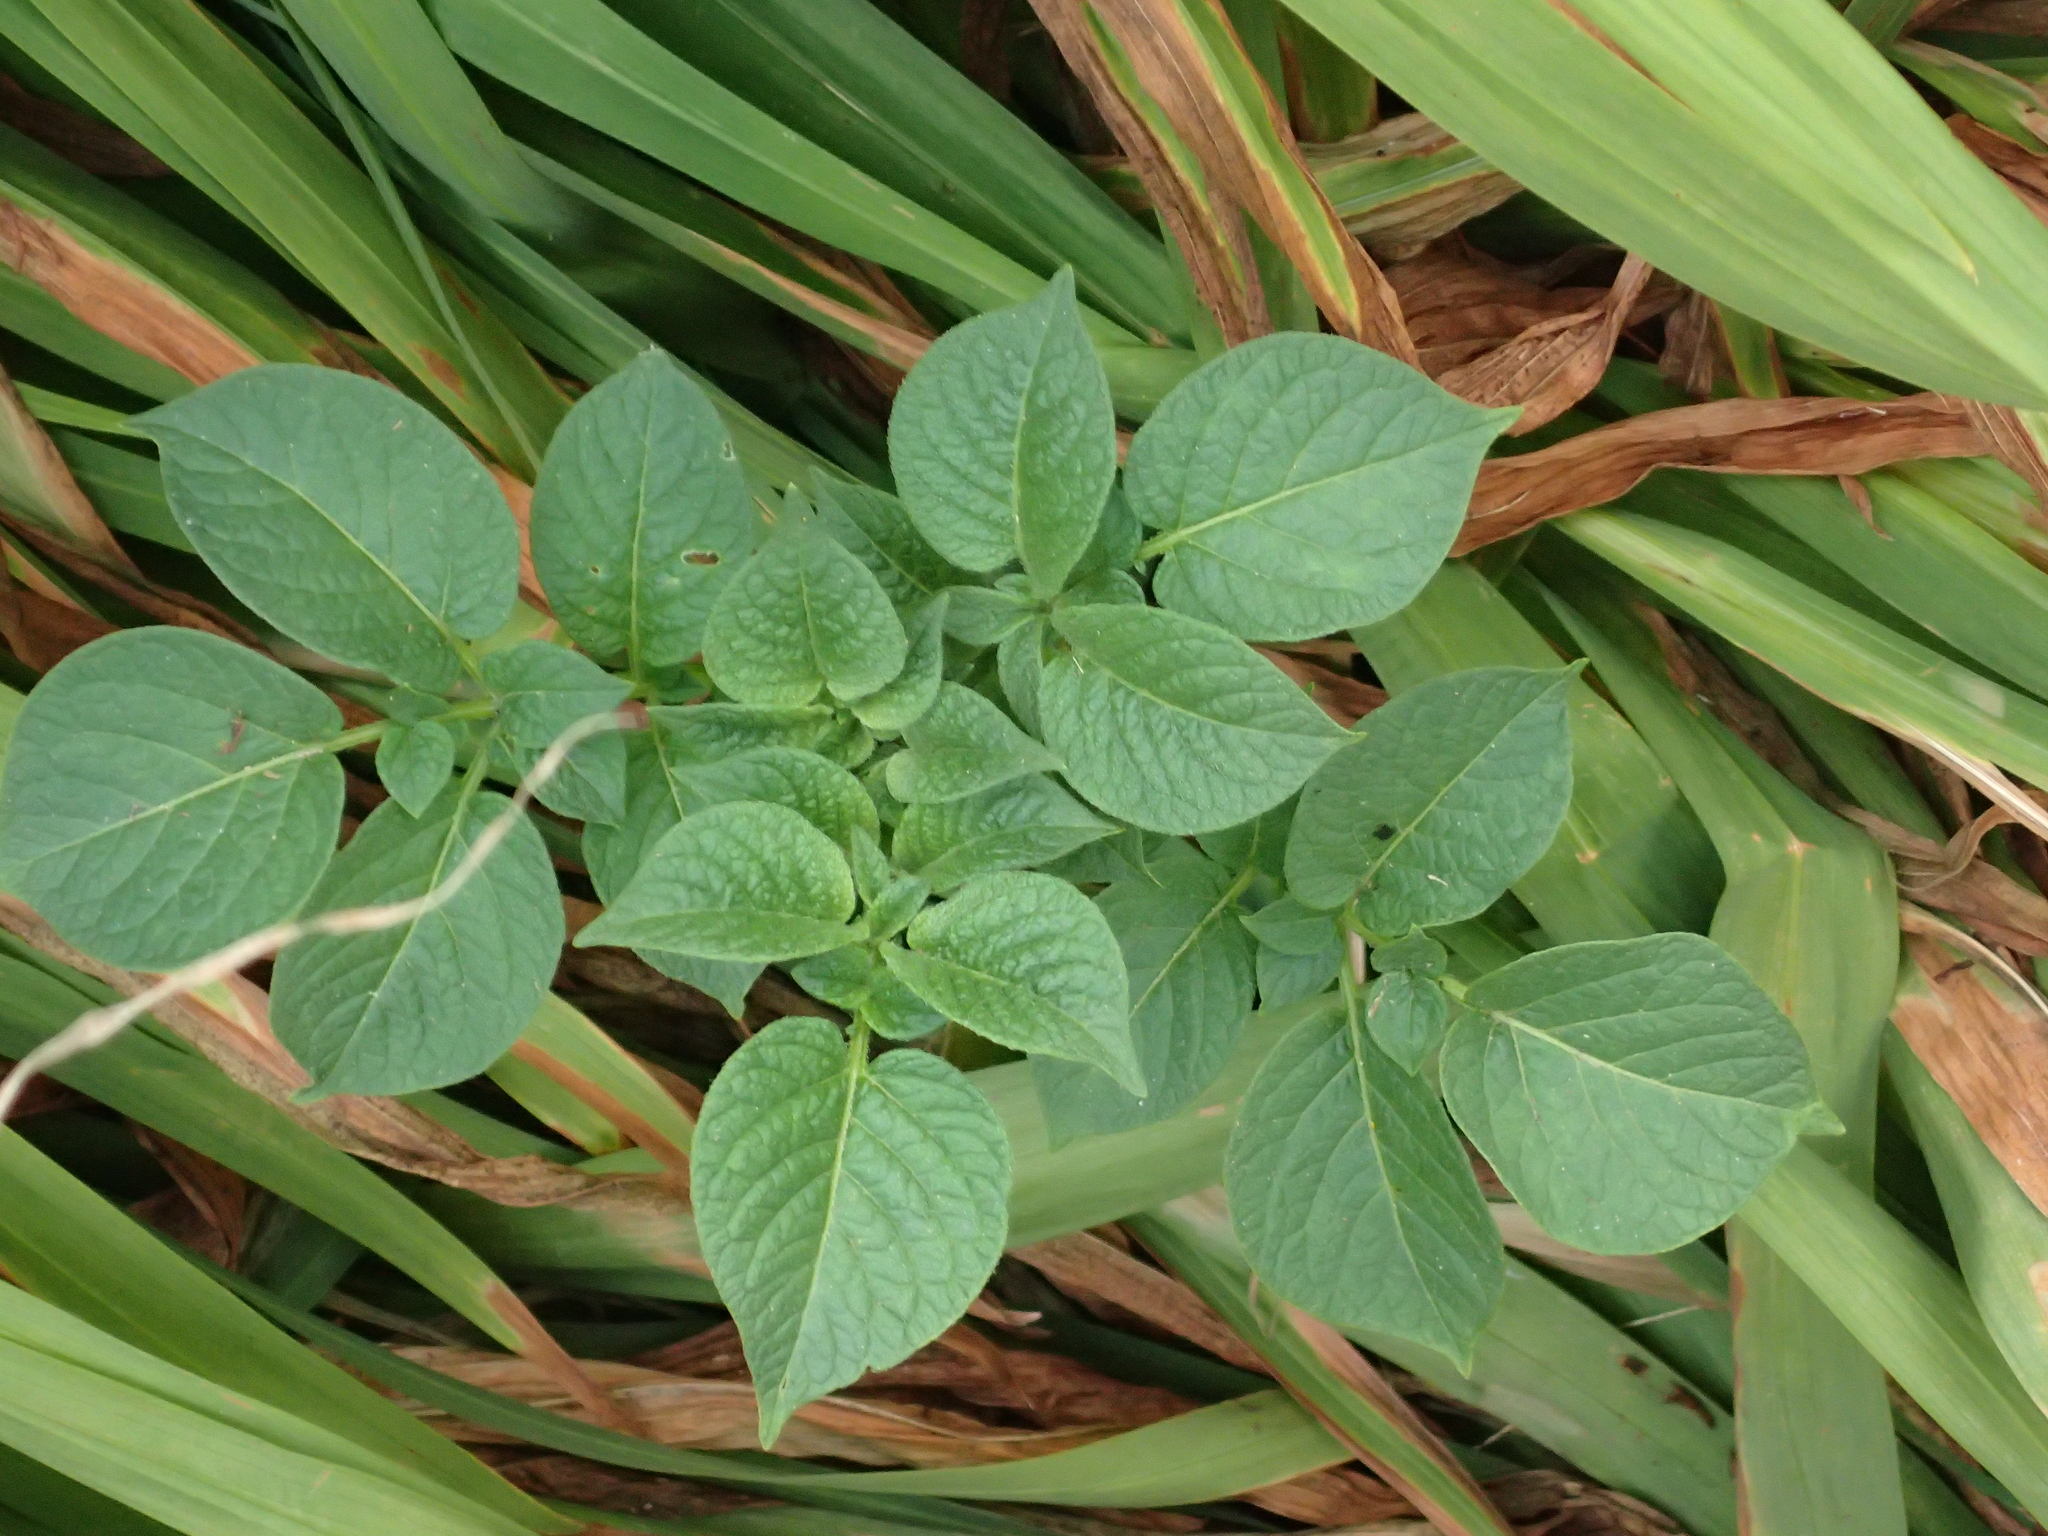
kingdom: Plantae
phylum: Tracheophyta
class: Magnoliopsida
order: Solanales
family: Solanaceae
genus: Solanum
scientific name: Solanum tuberosum
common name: Potato
